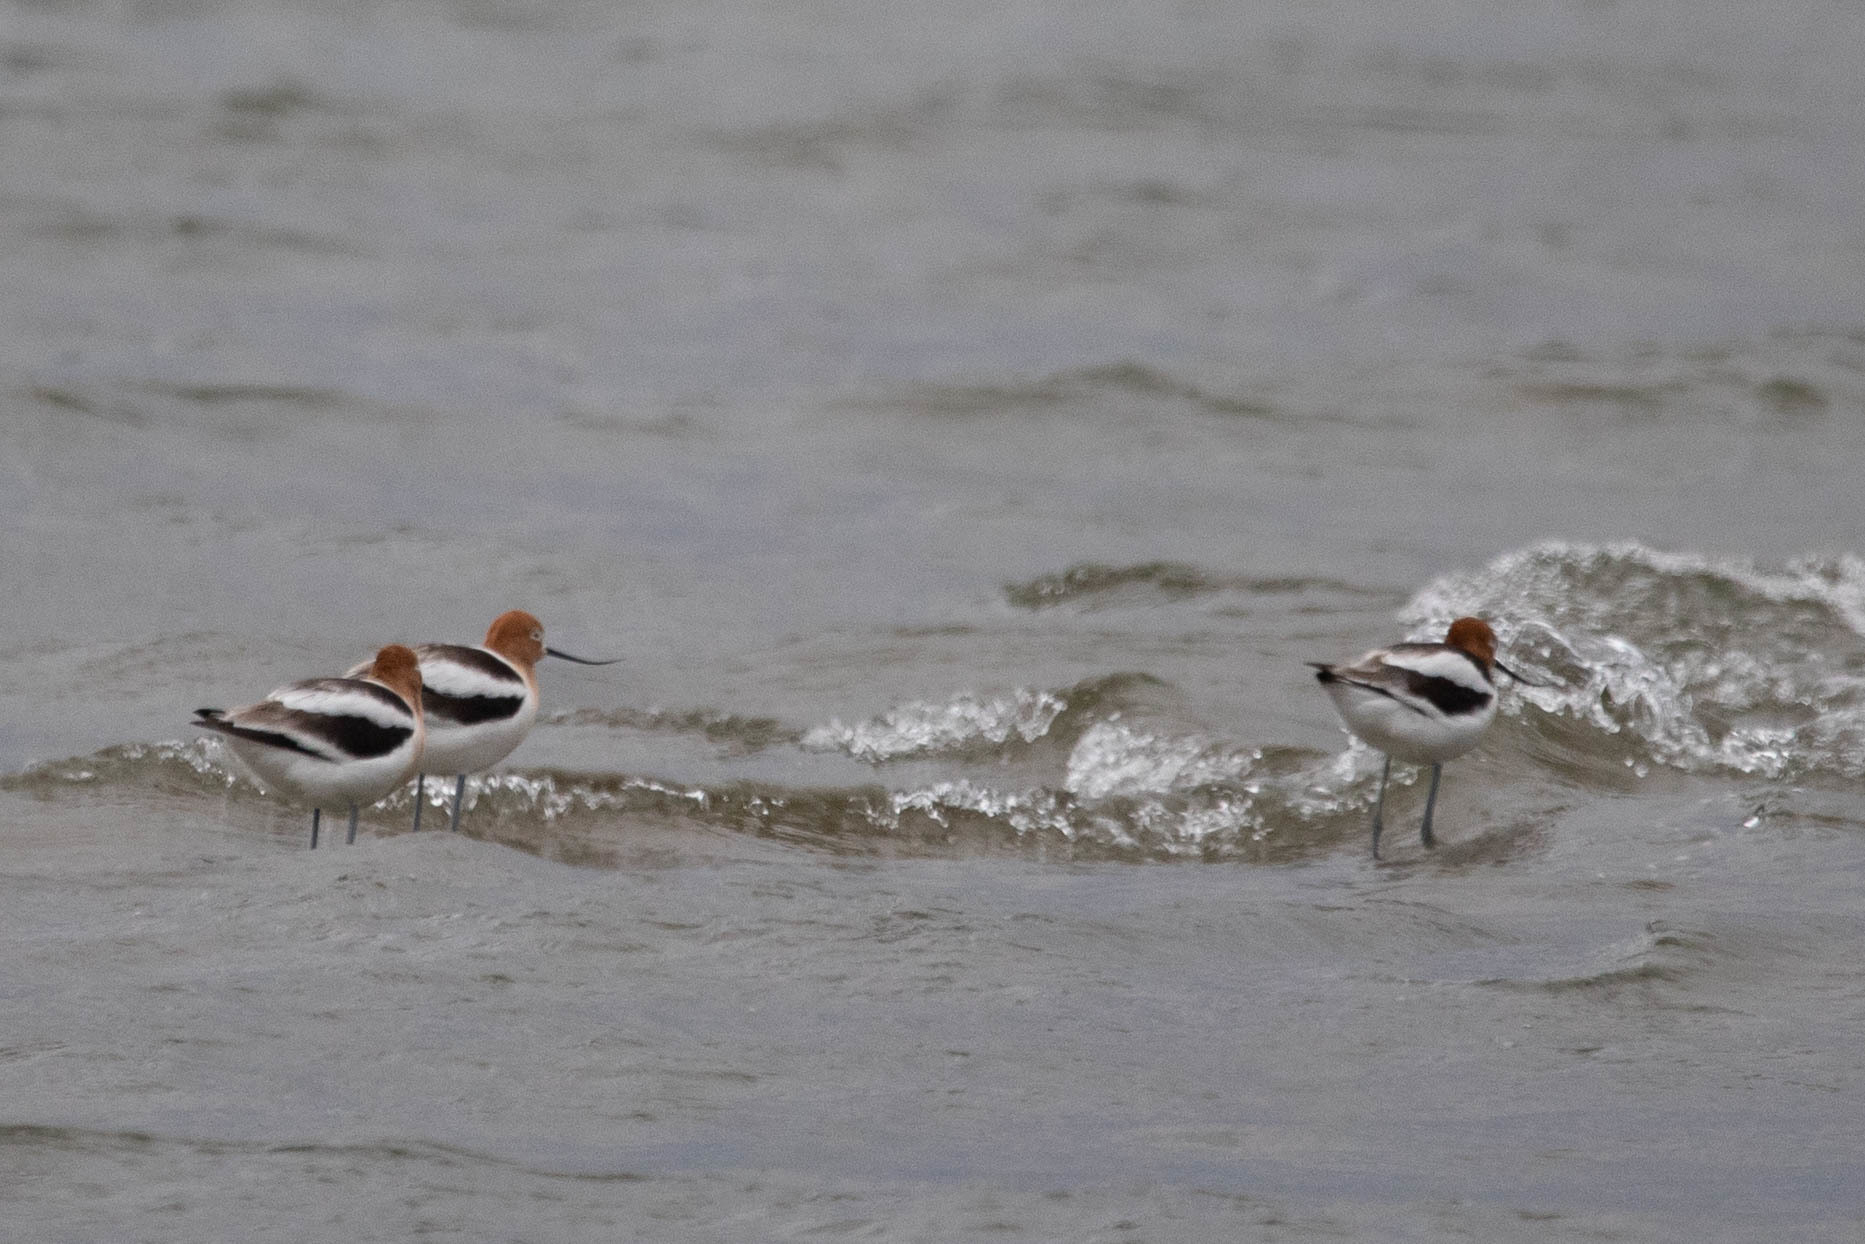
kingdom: Animalia
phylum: Chordata
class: Aves
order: Charadriiformes
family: Recurvirostridae
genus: Recurvirostra
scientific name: Recurvirostra americana
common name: American avocet
